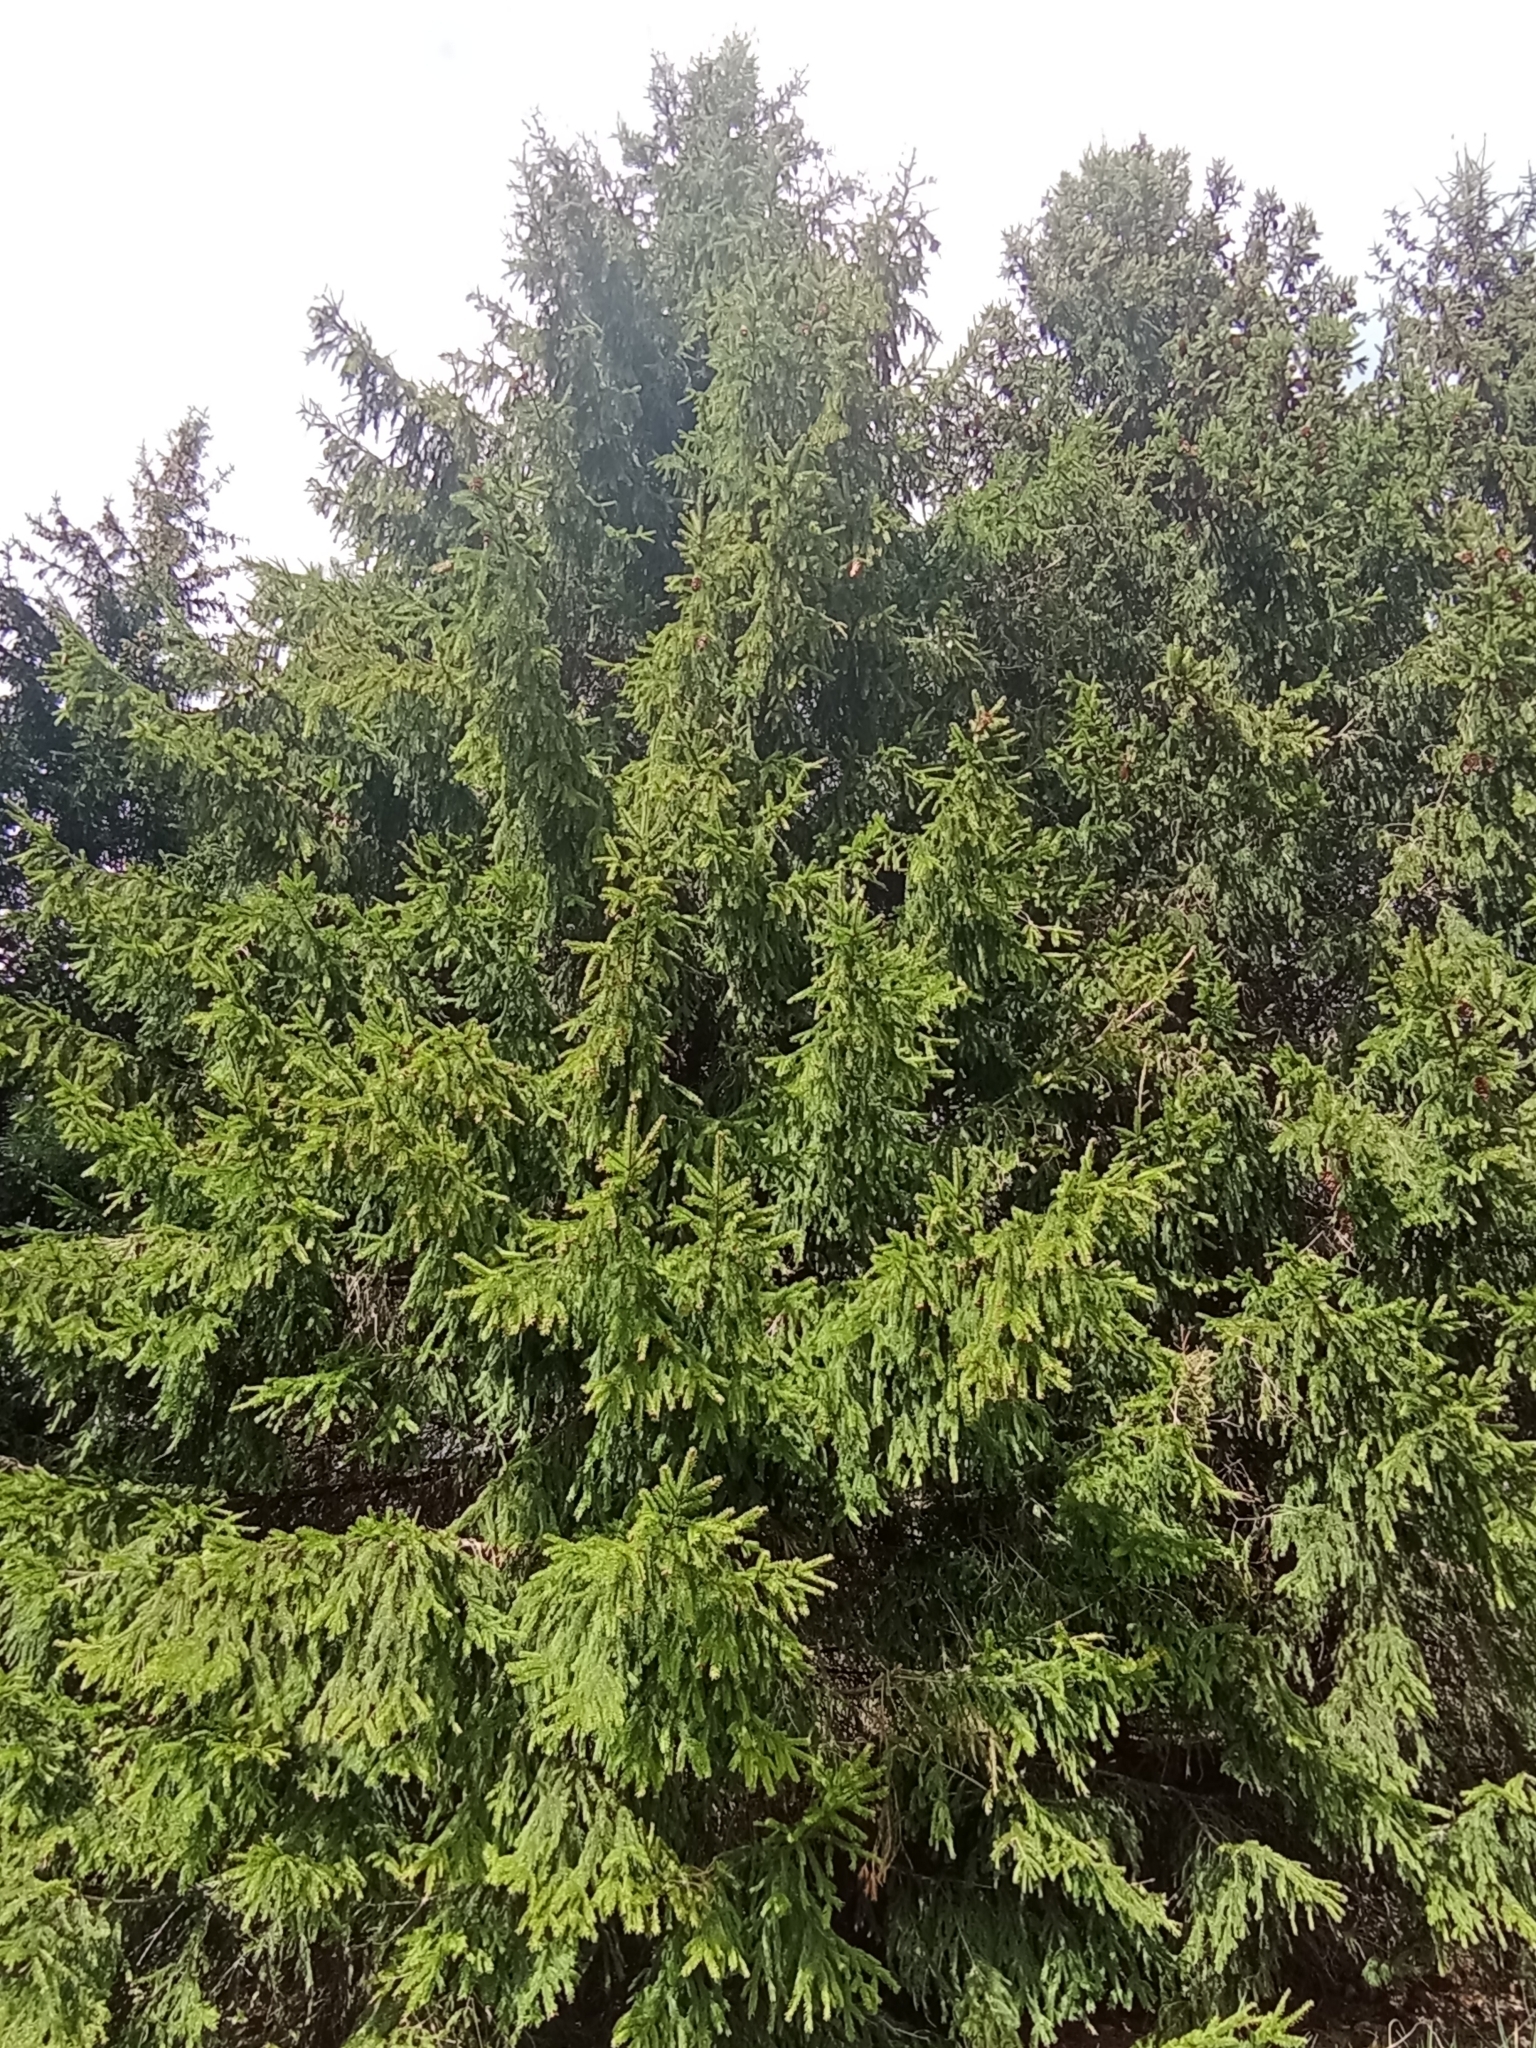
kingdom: Plantae
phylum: Tracheophyta
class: Pinopsida
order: Pinales
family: Pinaceae
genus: Picea
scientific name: Picea abies
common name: Norway spruce
